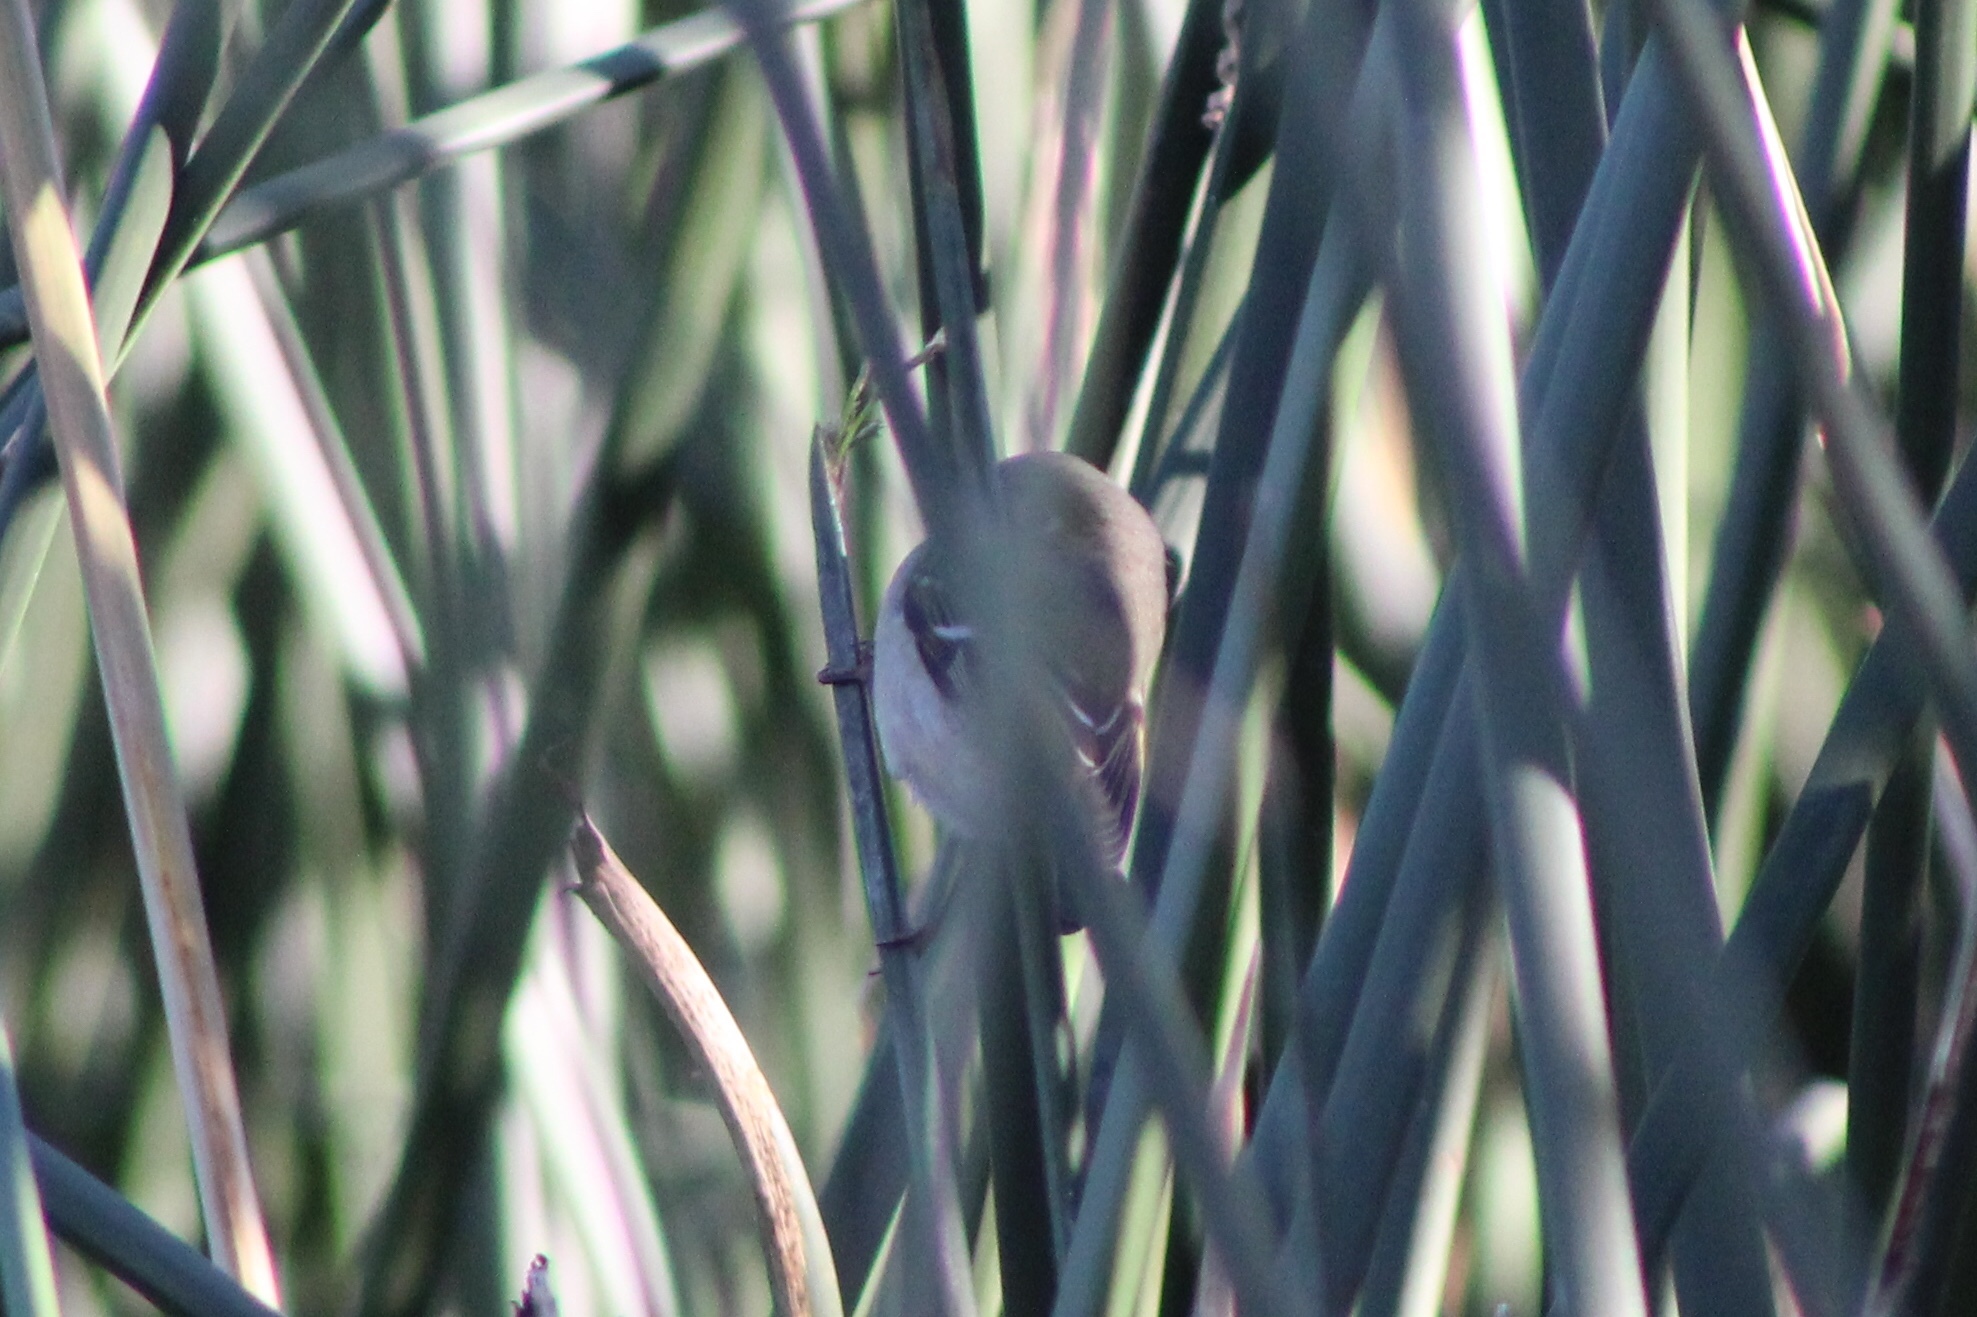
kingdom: Animalia
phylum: Chordata
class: Aves
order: Passeriformes
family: Regulidae
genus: Regulus
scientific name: Regulus calendula
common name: Ruby-crowned kinglet
